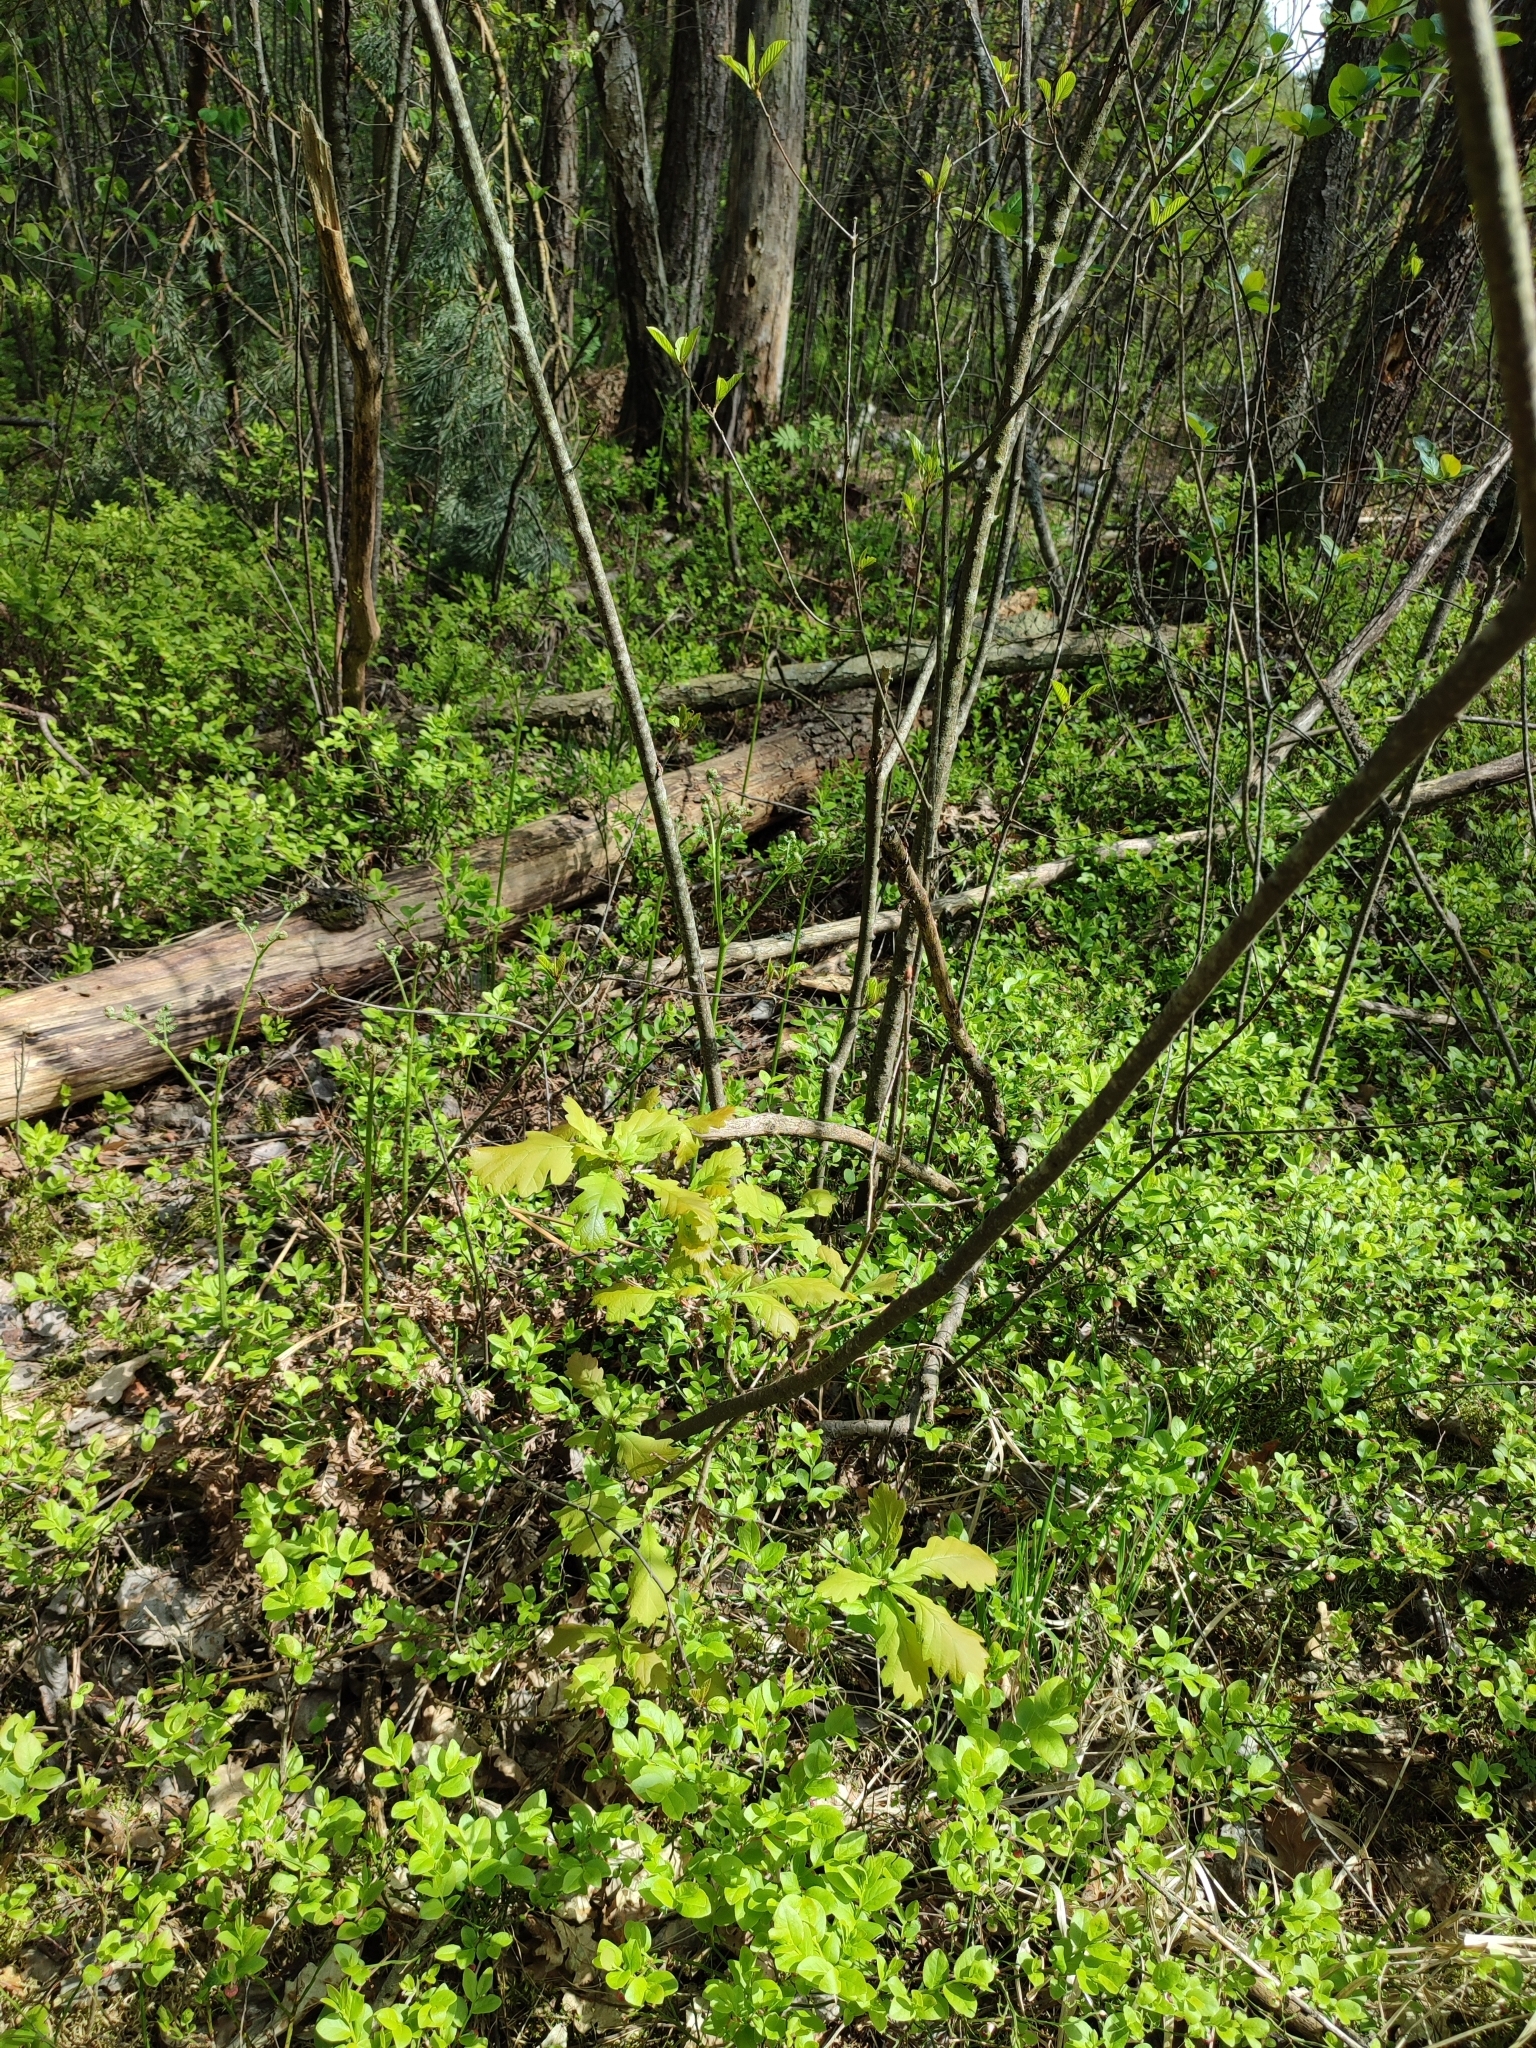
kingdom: Plantae
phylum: Tracheophyta
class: Magnoliopsida
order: Fagales
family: Fagaceae
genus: Quercus
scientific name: Quercus robur
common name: Pedunculate oak
